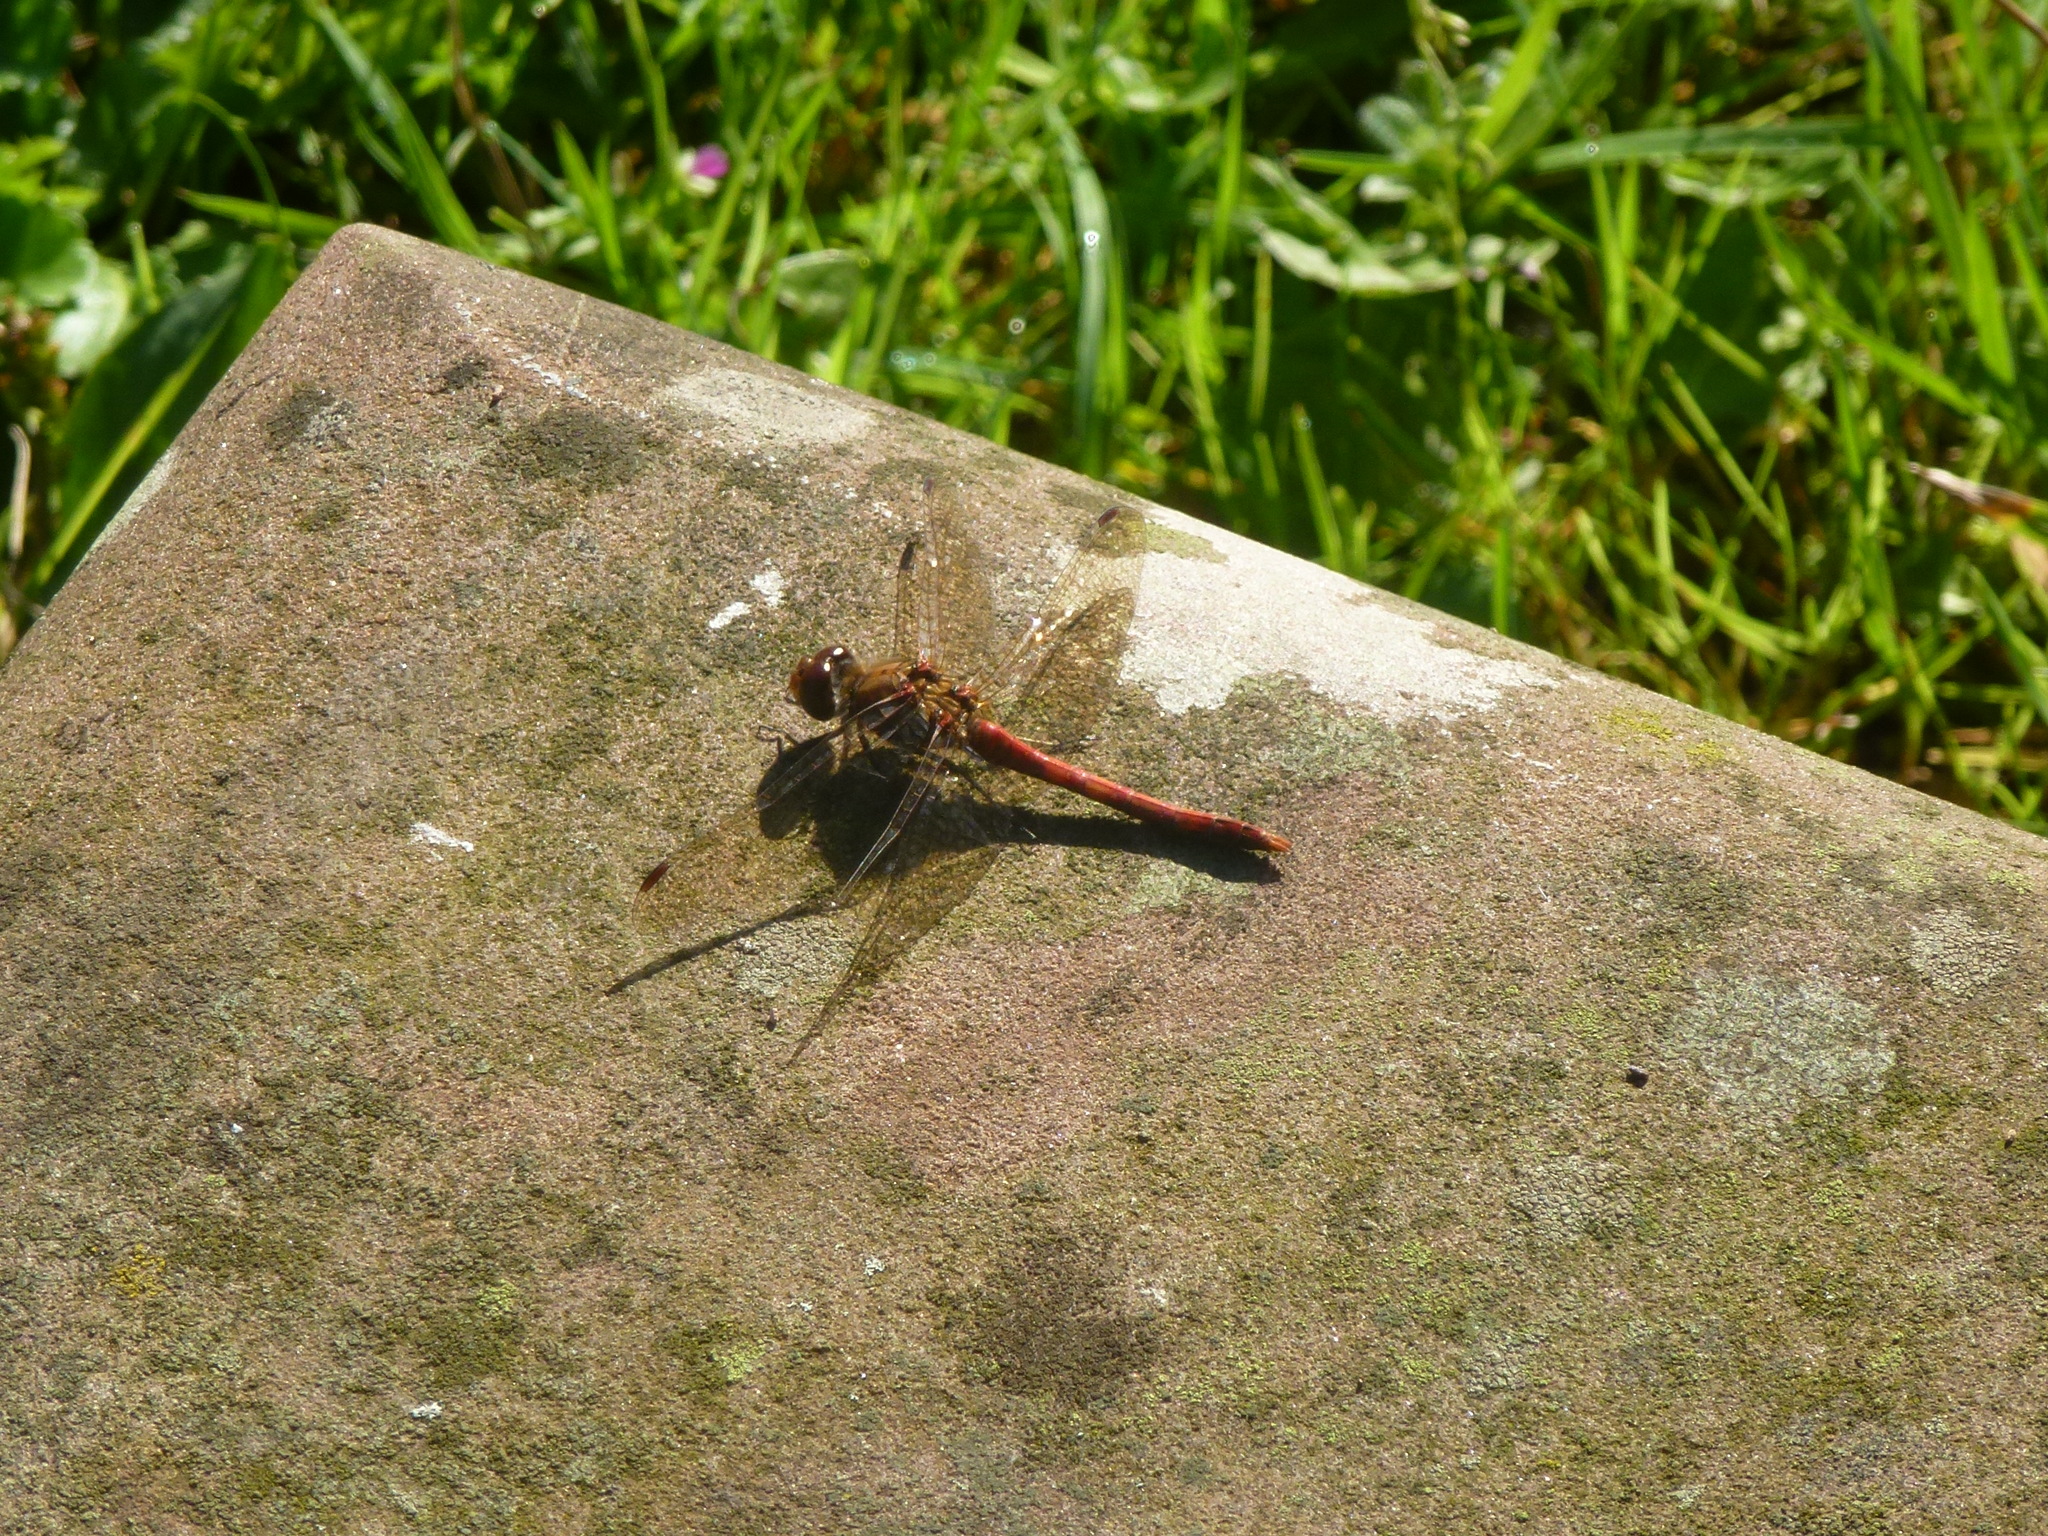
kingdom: Animalia
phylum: Arthropoda
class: Insecta
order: Odonata
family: Libellulidae
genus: Sympetrum
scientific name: Sympetrum striolatum
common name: Common darter
